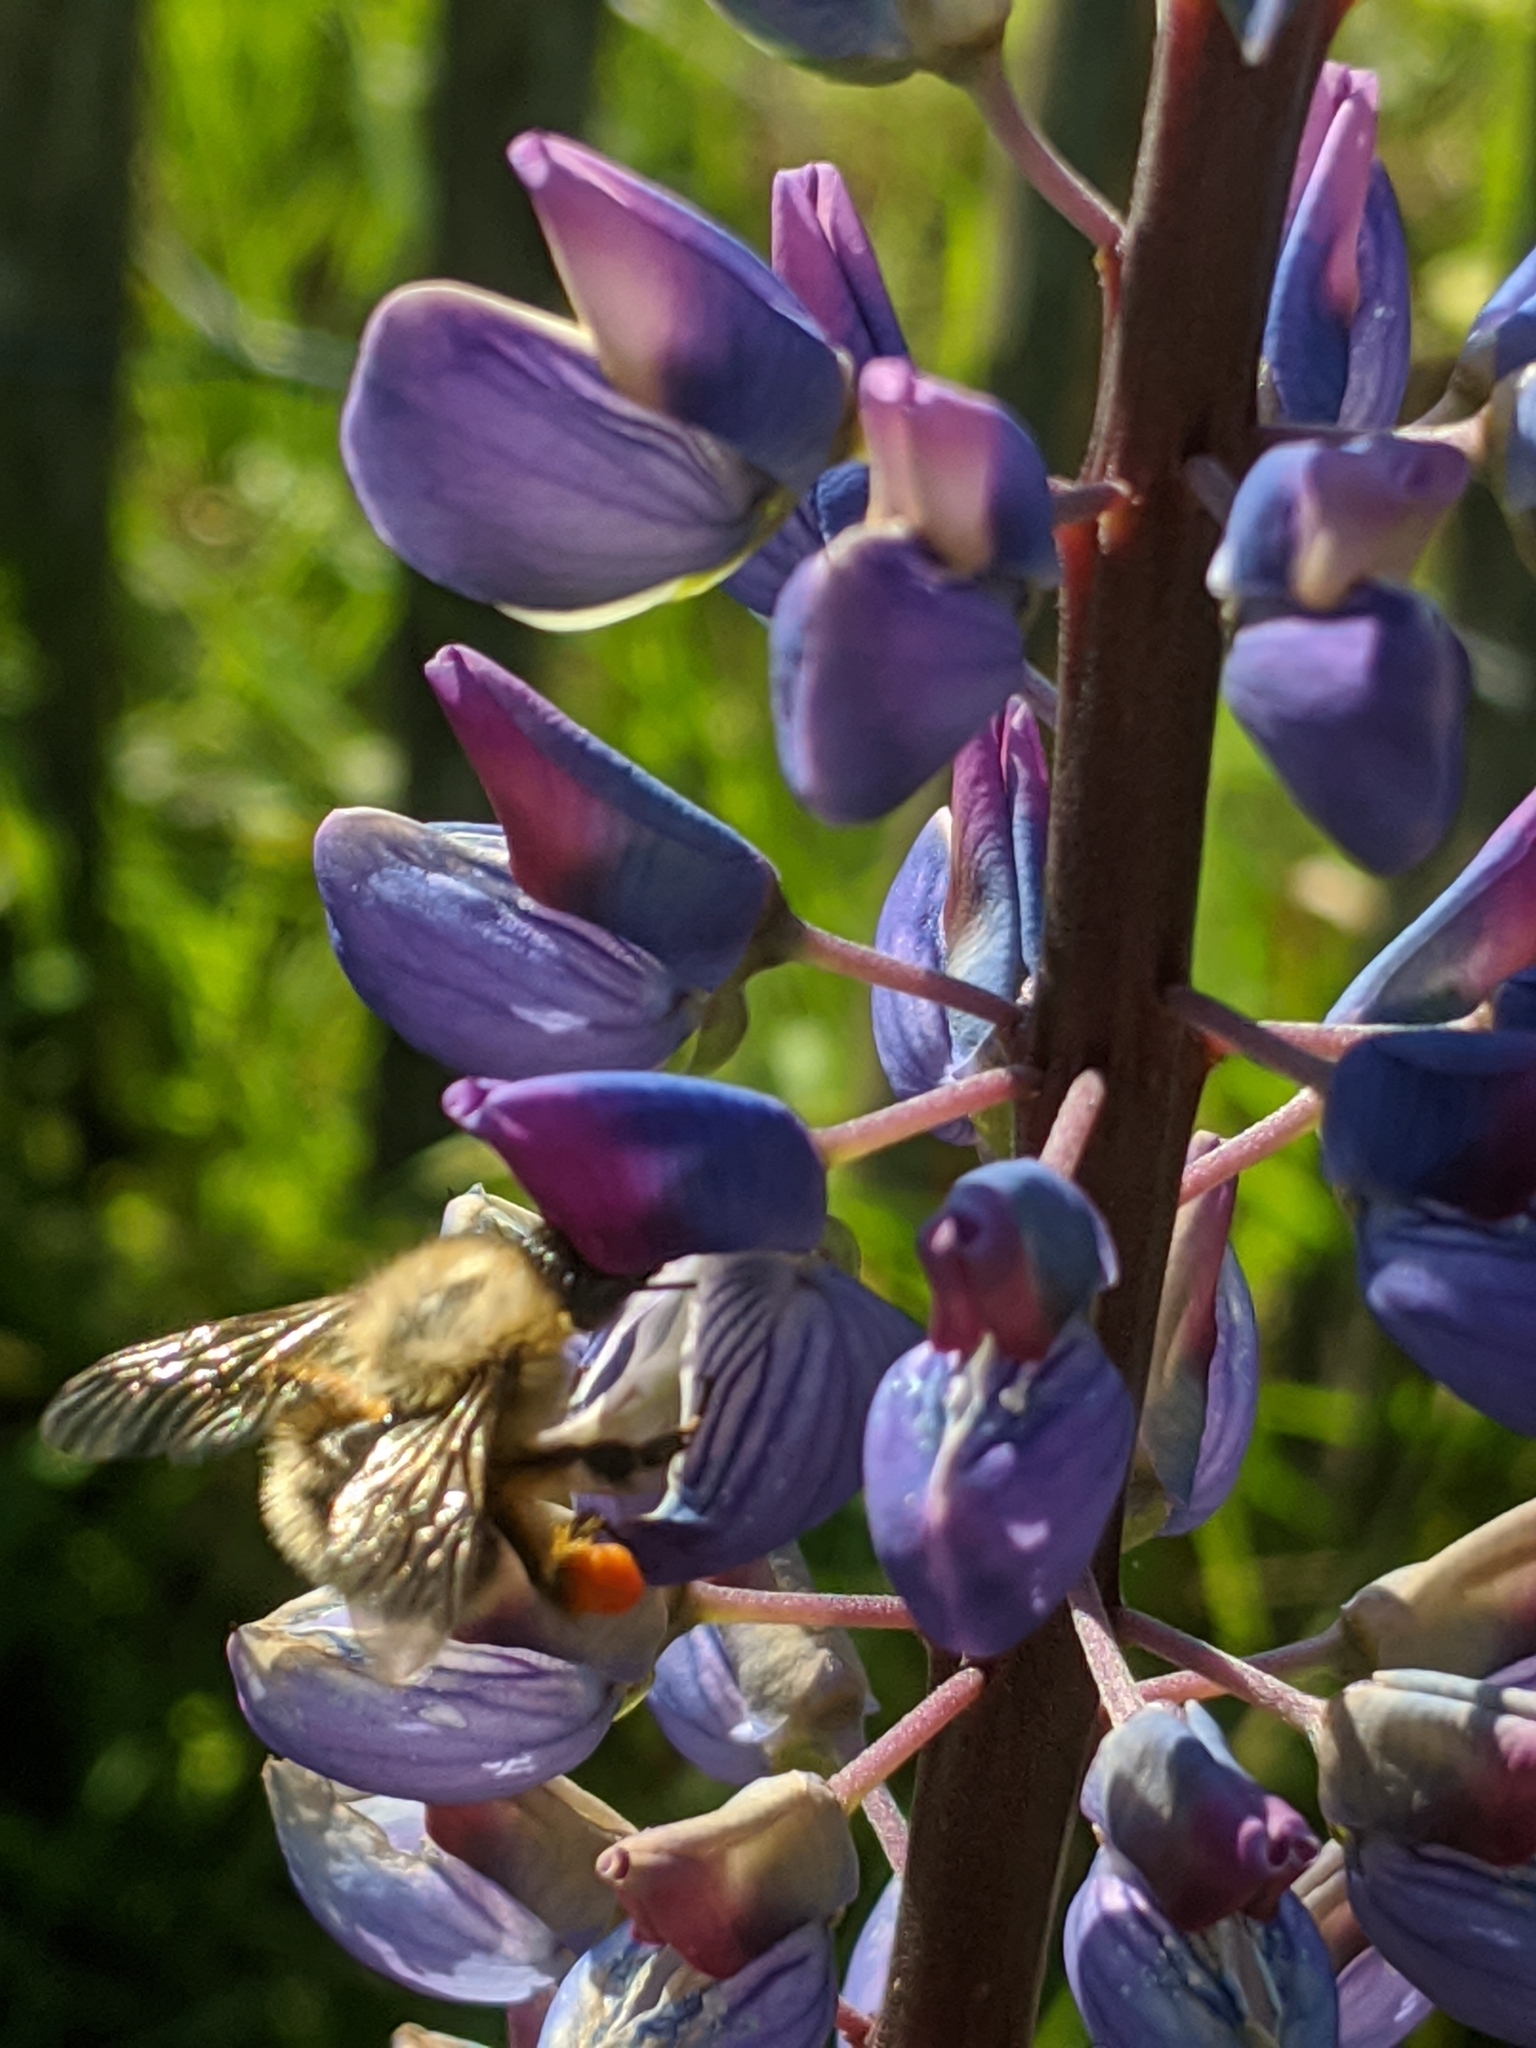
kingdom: Animalia
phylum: Arthropoda
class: Insecta
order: Hymenoptera
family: Apidae
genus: Bombus
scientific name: Bombus pascuorum
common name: Common carder bee
